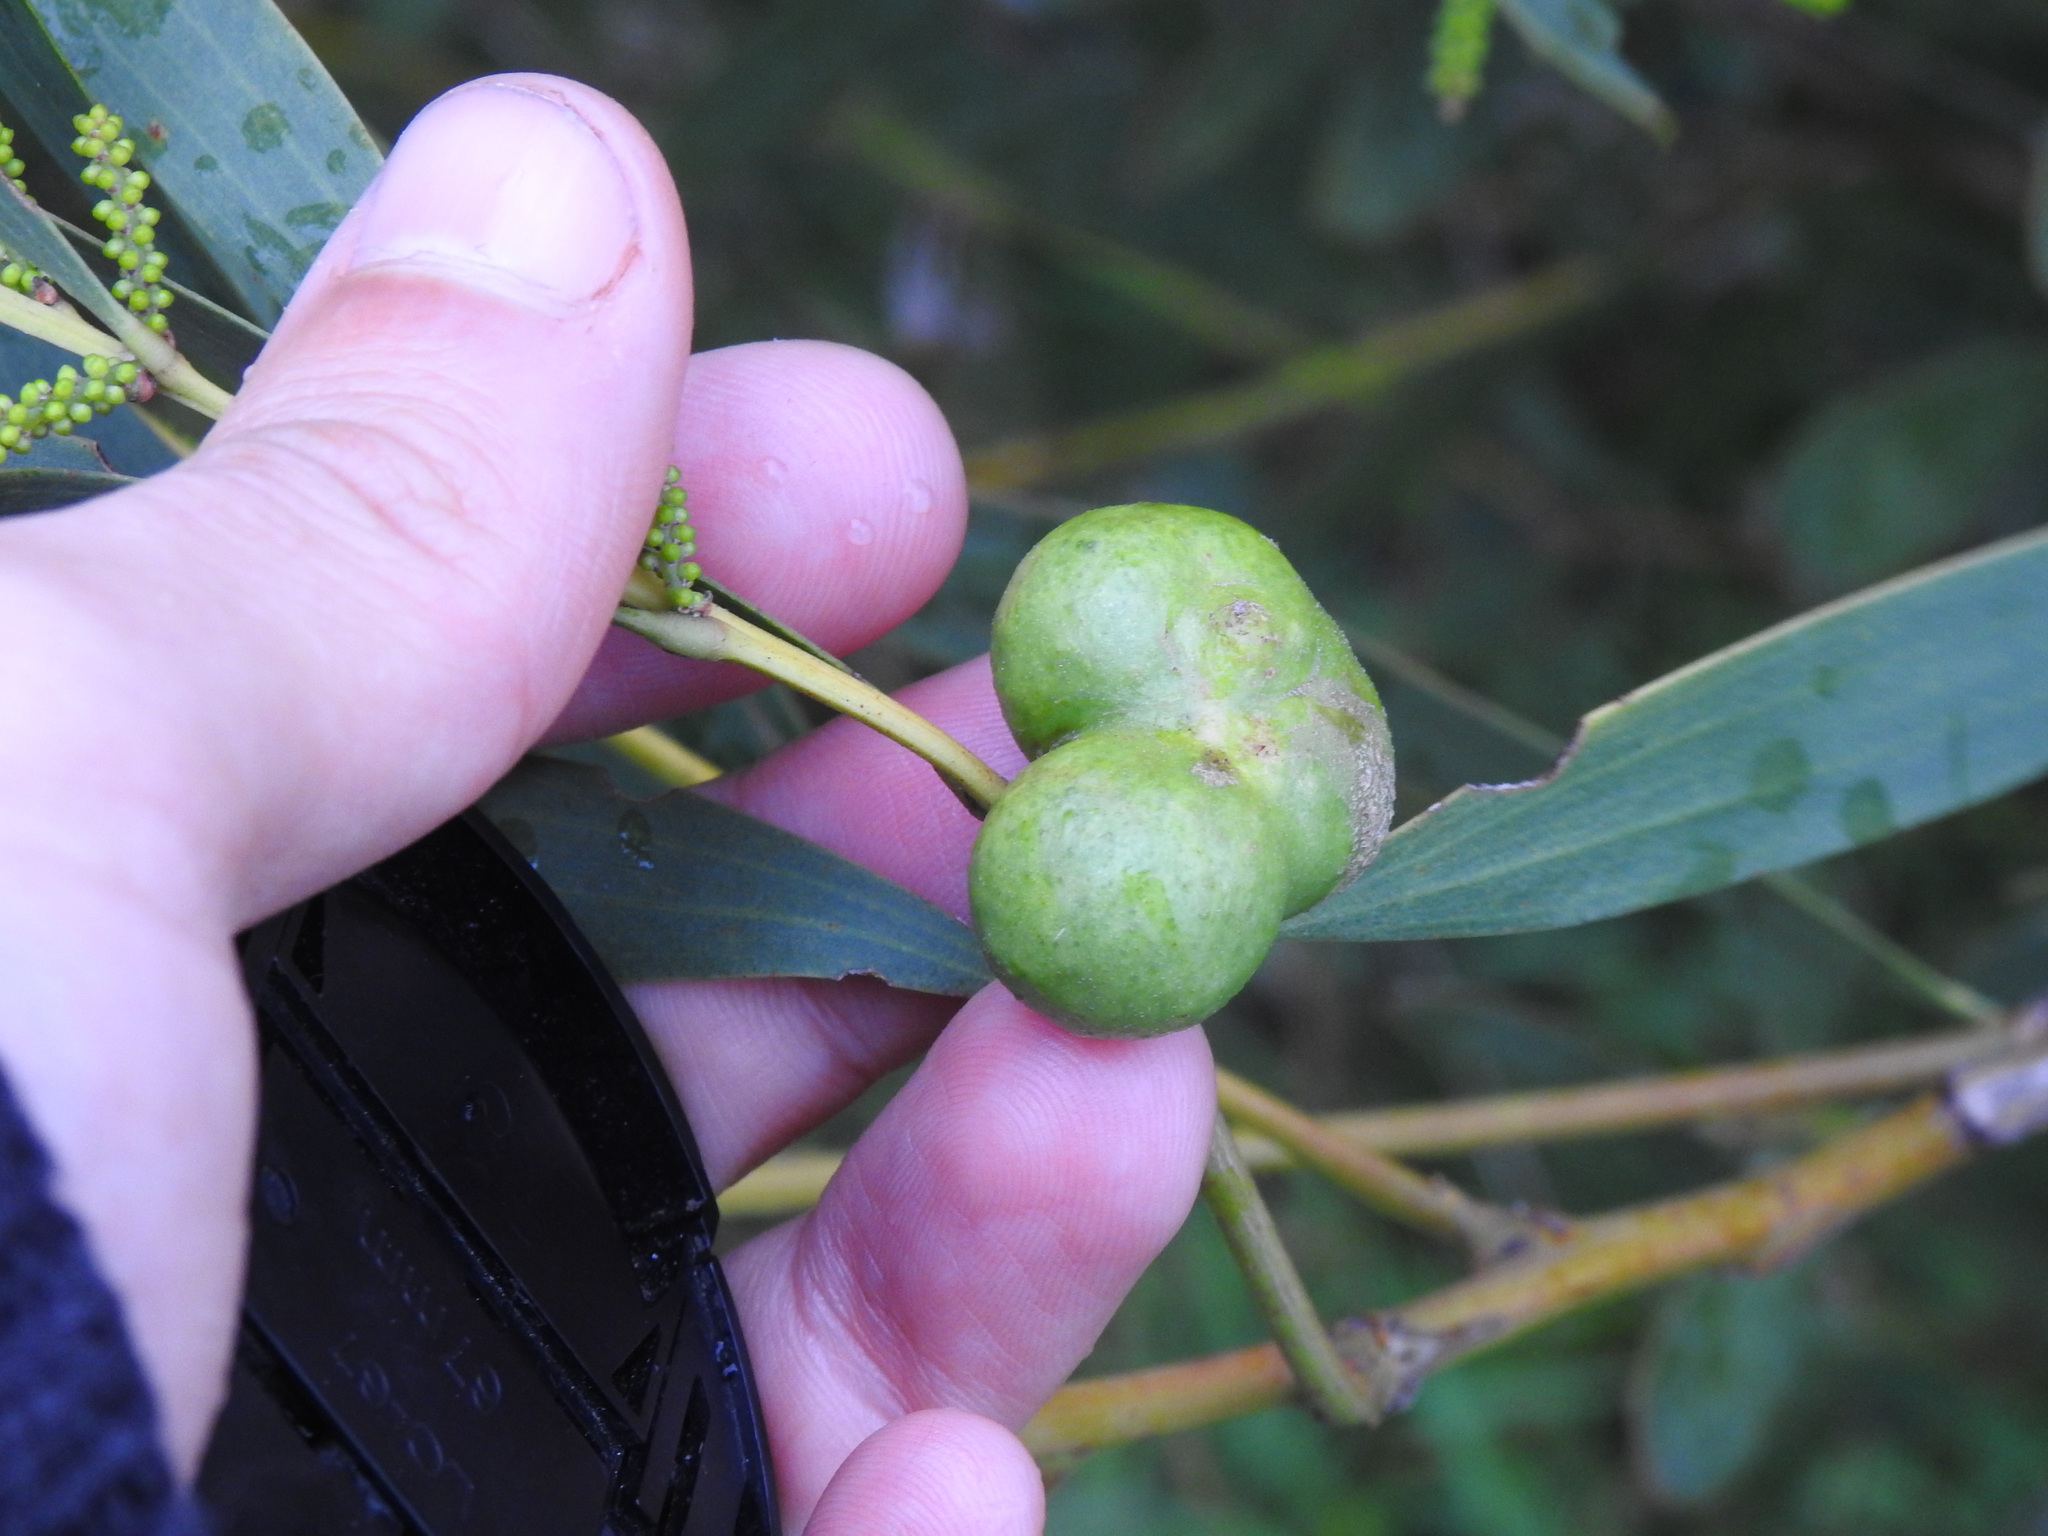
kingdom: Animalia
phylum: Arthropoda
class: Insecta
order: Hymenoptera
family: Pteromalidae
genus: Trichilogaster
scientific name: Trichilogaster acaciaelongifoliae
